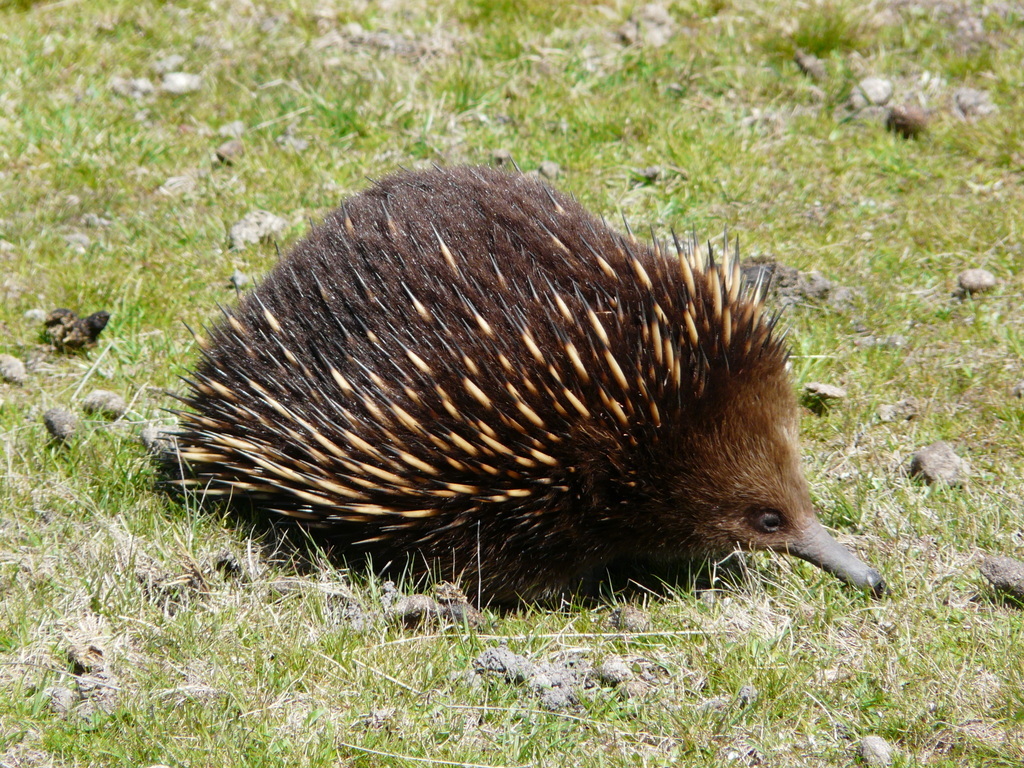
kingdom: Animalia
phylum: Chordata
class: Mammalia
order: Monotremata
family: Tachyglossidae
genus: Tachyglossus
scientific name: Tachyglossus aculeatus
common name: Short-beaked echidna
